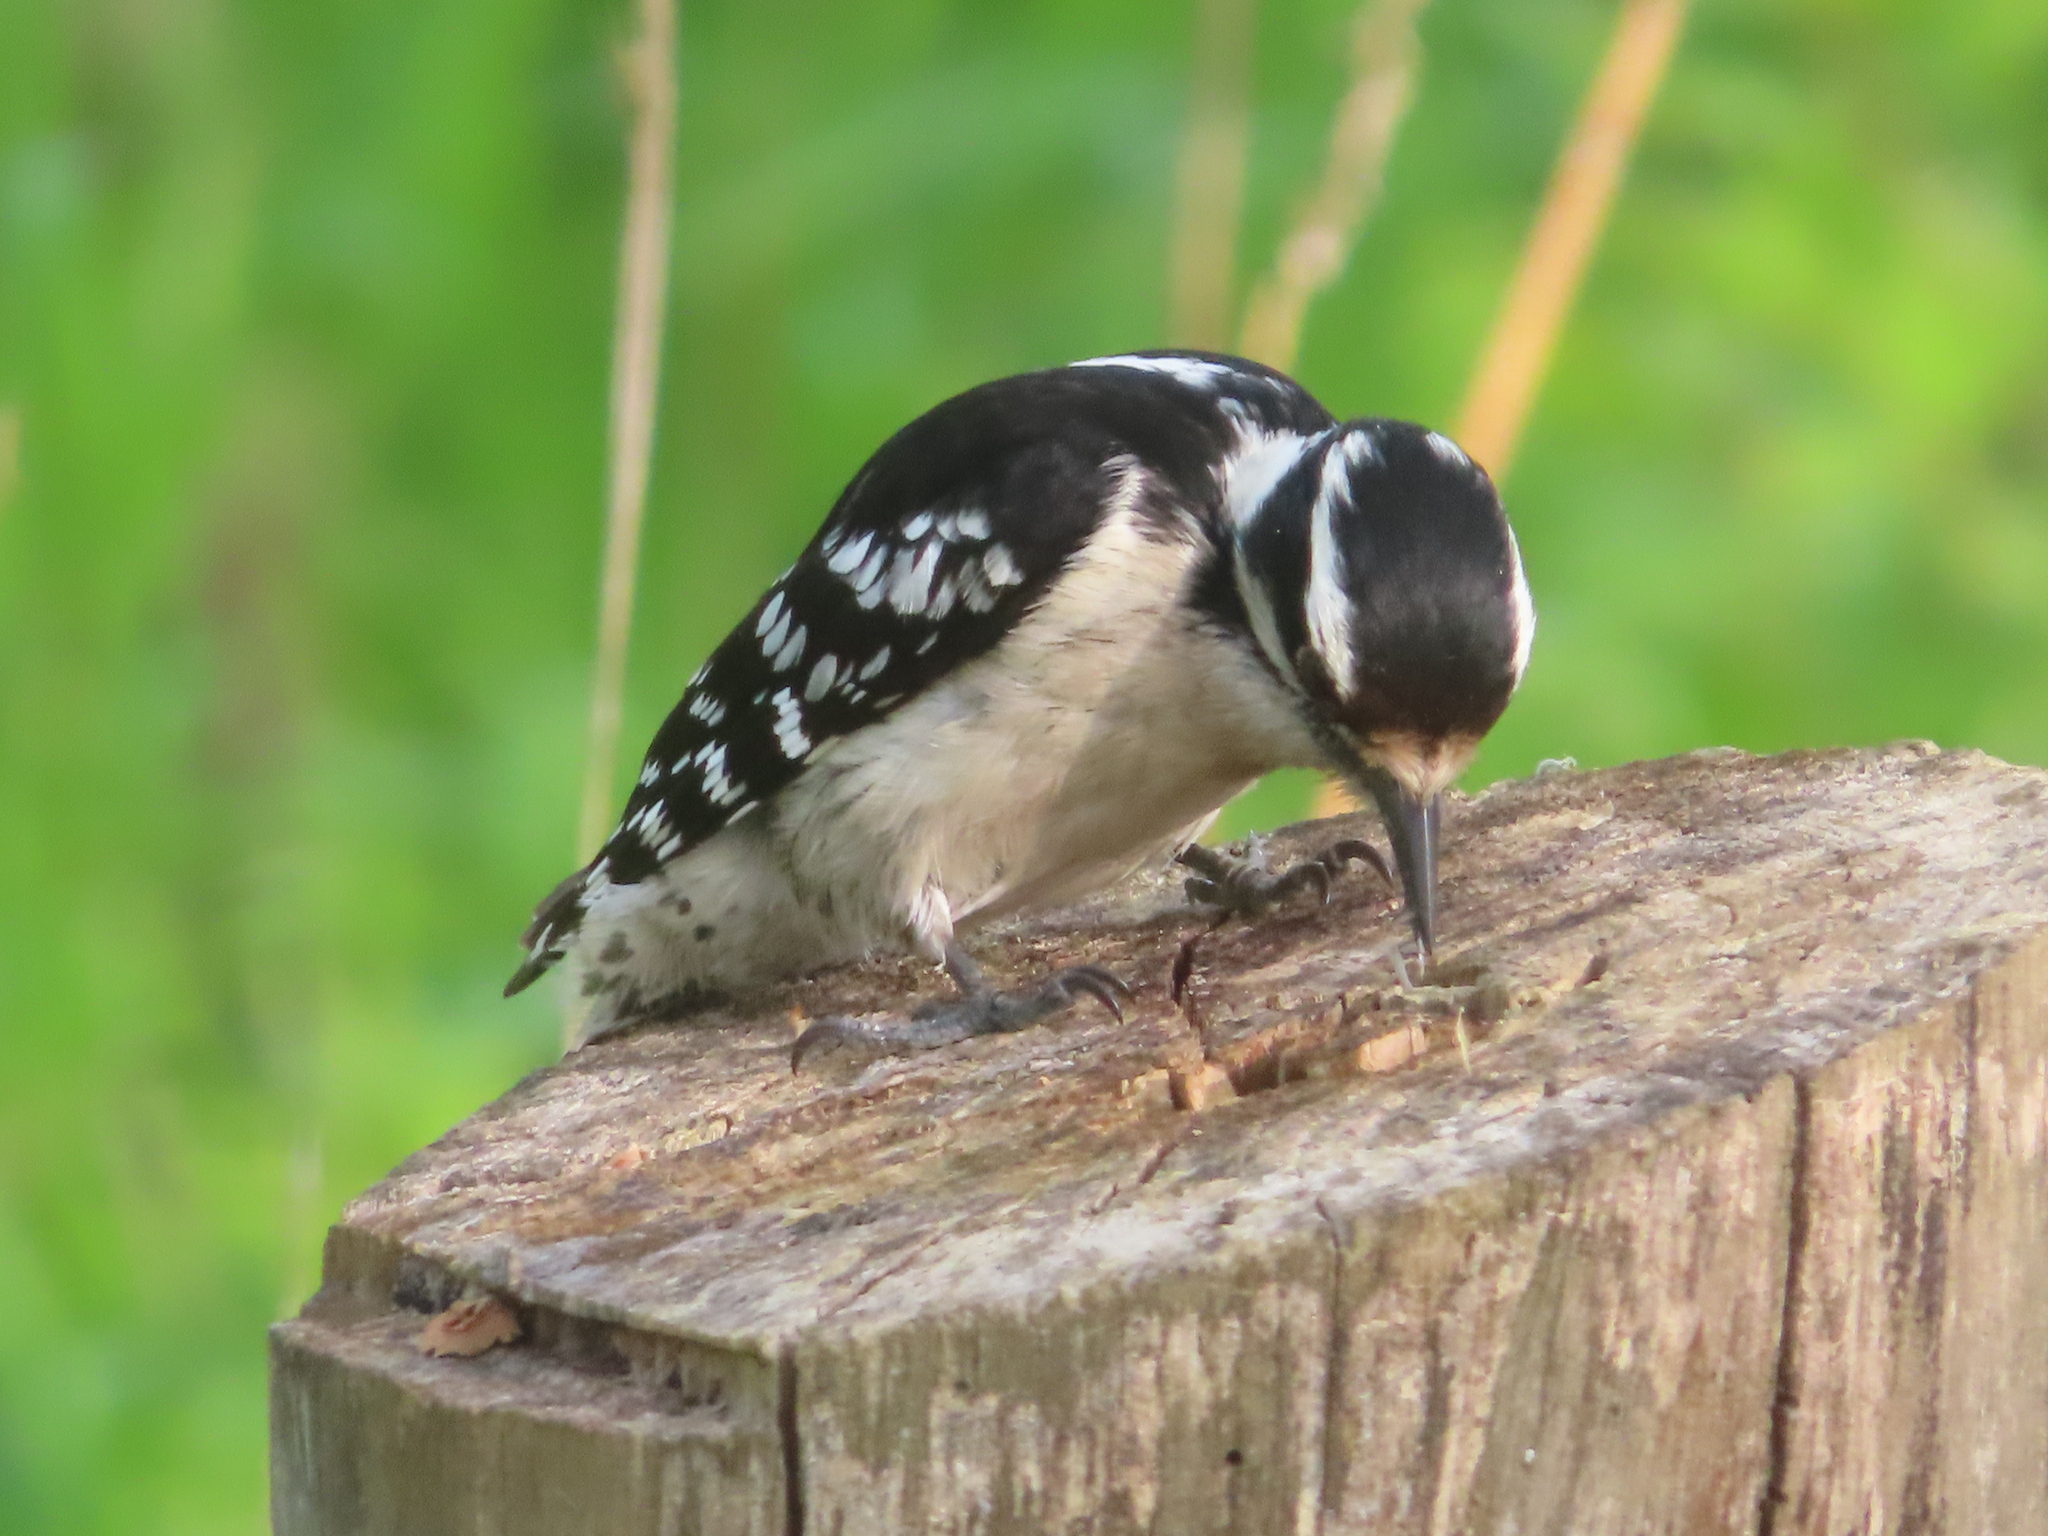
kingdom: Animalia
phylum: Chordata
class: Aves
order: Piciformes
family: Picidae
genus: Dryobates
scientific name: Dryobates pubescens
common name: Downy woodpecker
